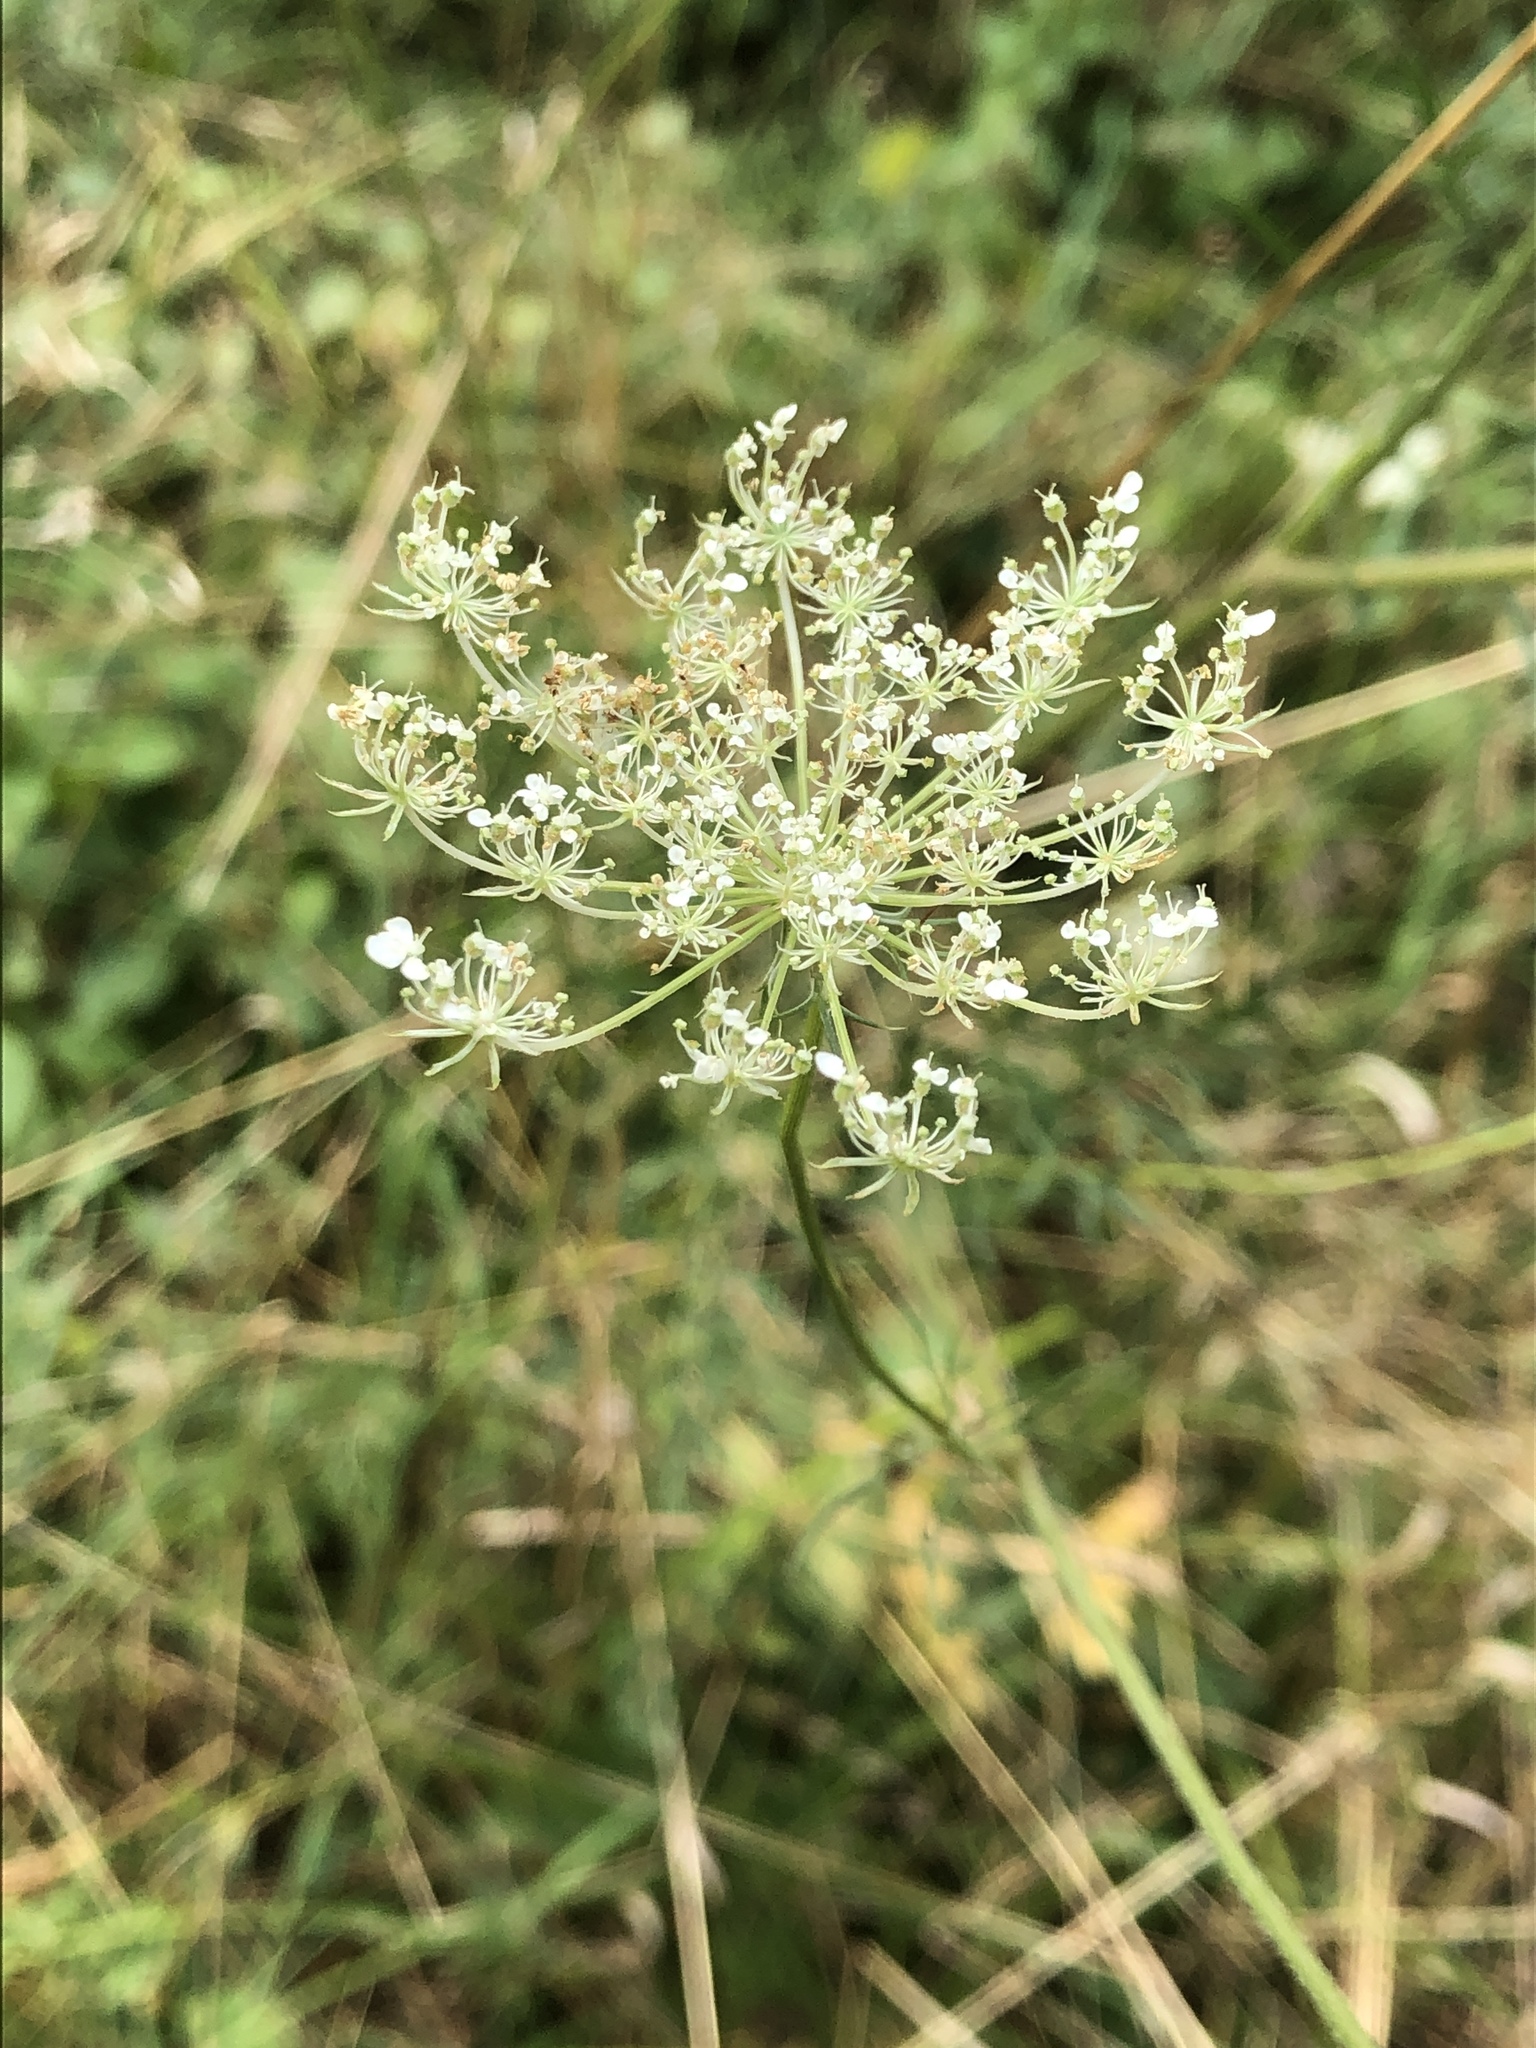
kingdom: Plantae
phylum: Tracheophyta
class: Magnoliopsida
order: Apiales
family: Apiaceae
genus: Daucus
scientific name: Daucus carota
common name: Wild carrot
